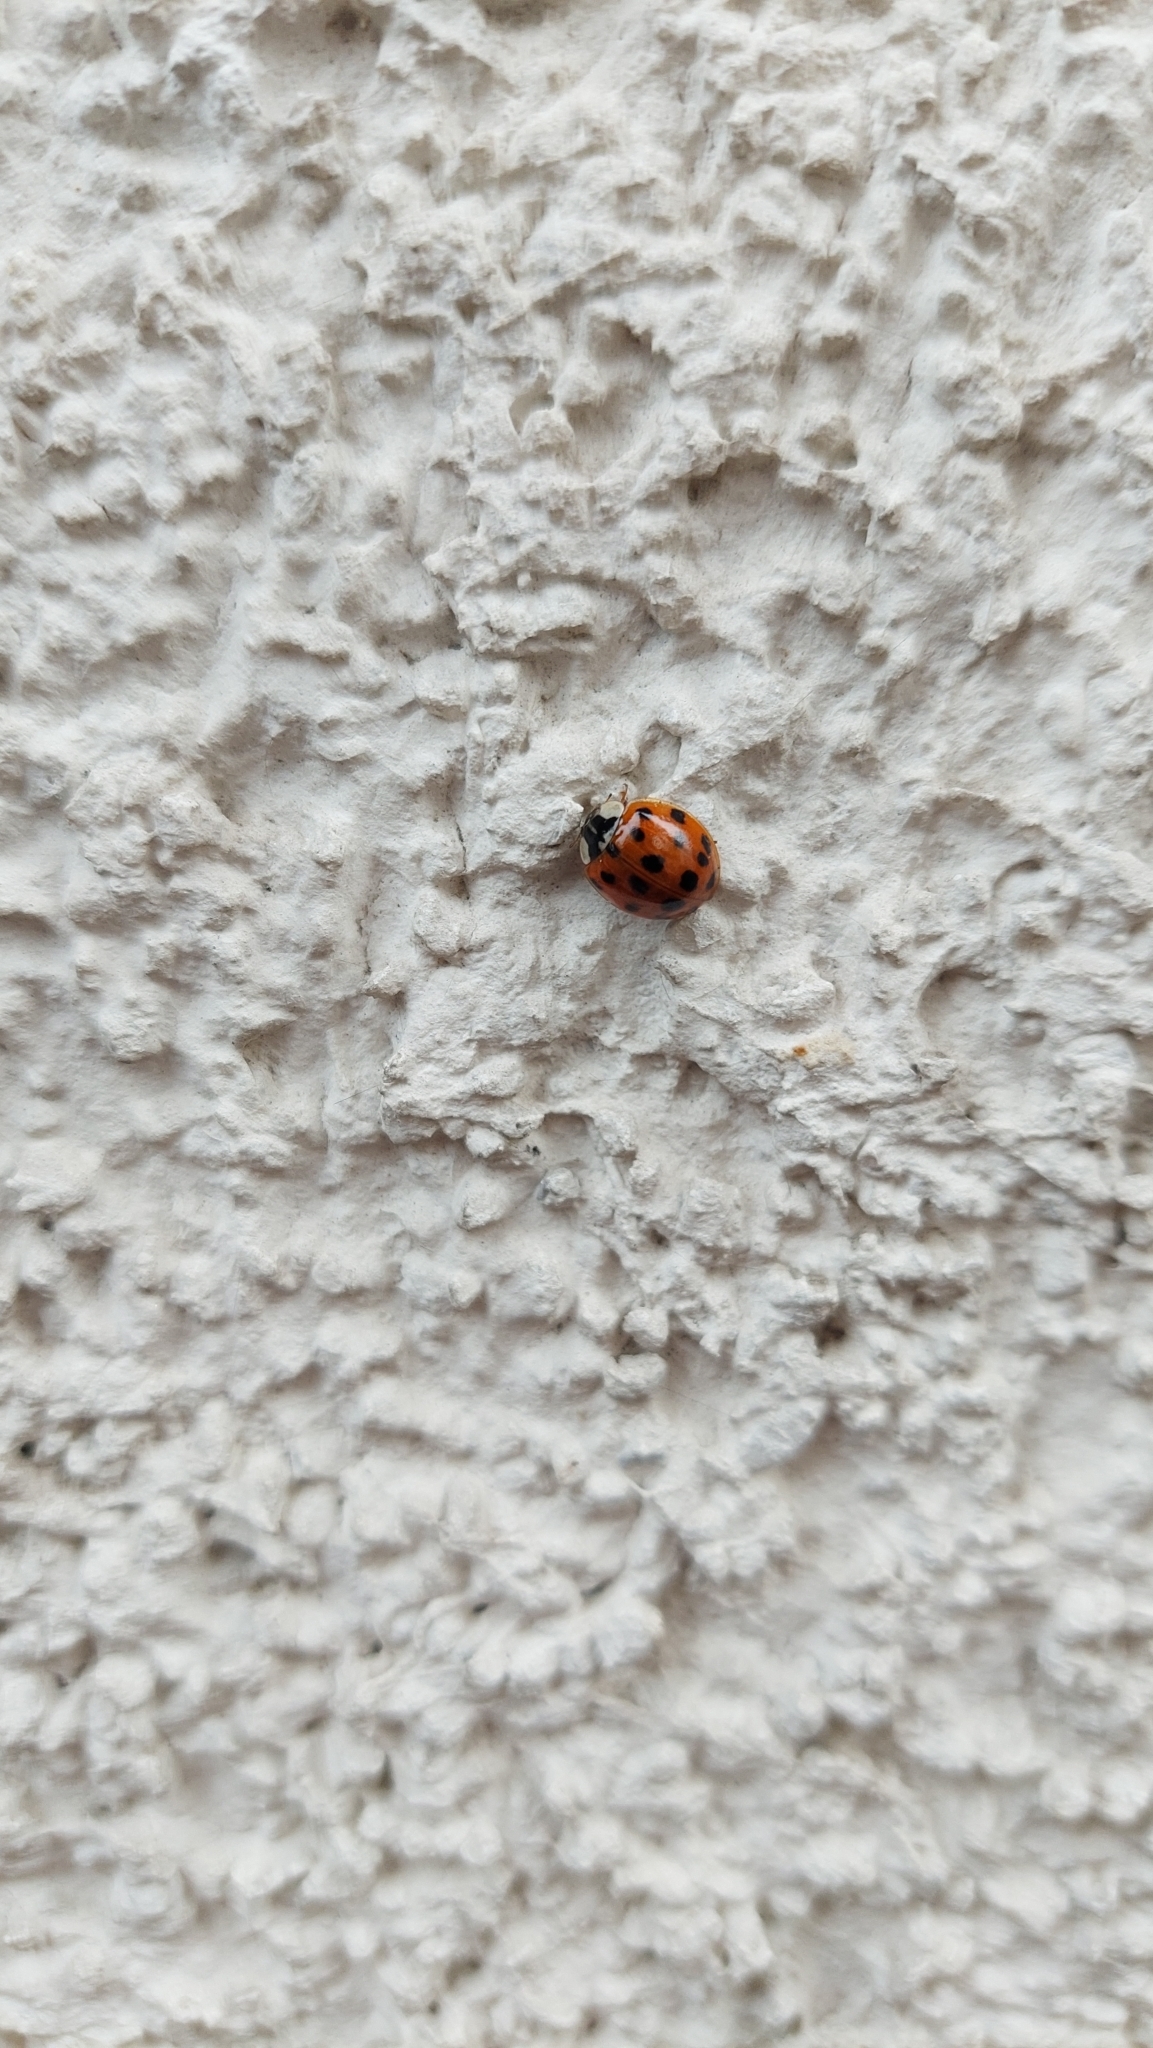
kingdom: Animalia
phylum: Arthropoda
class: Insecta
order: Coleoptera
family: Coccinellidae
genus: Harmonia
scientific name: Harmonia axyridis
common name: Harlequin ladybird
